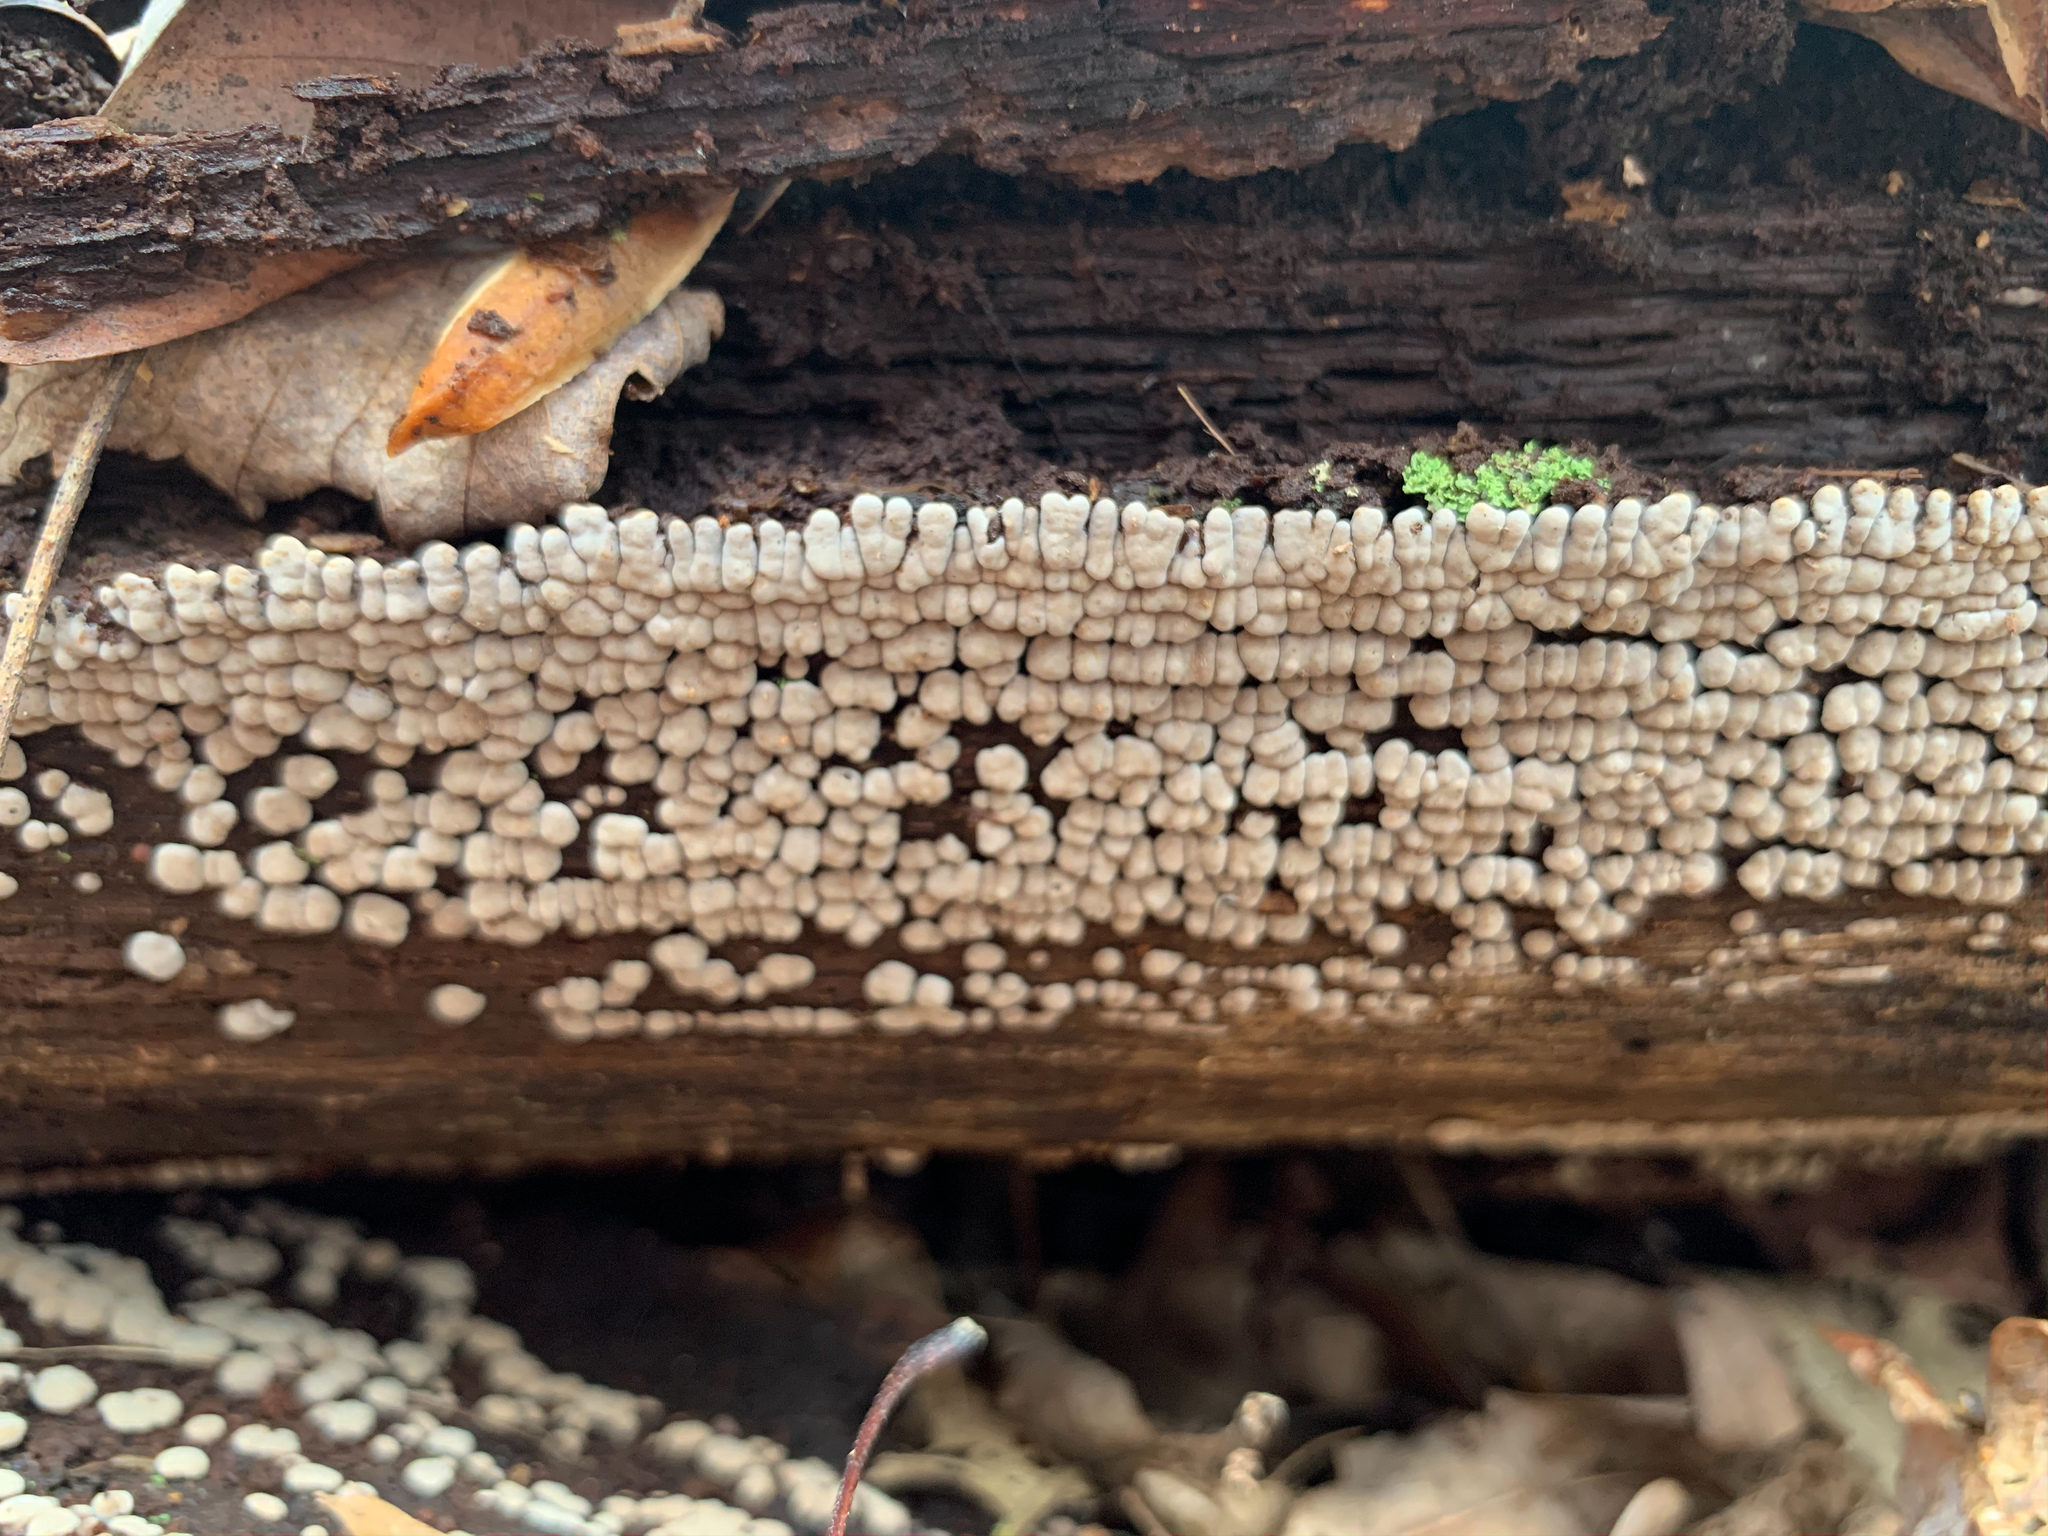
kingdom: Fungi
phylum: Basidiomycota
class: Agaricomycetes
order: Russulales
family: Stereaceae
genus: Xylobolus
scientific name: Xylobolus frustulatus
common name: Ceramic parchment
